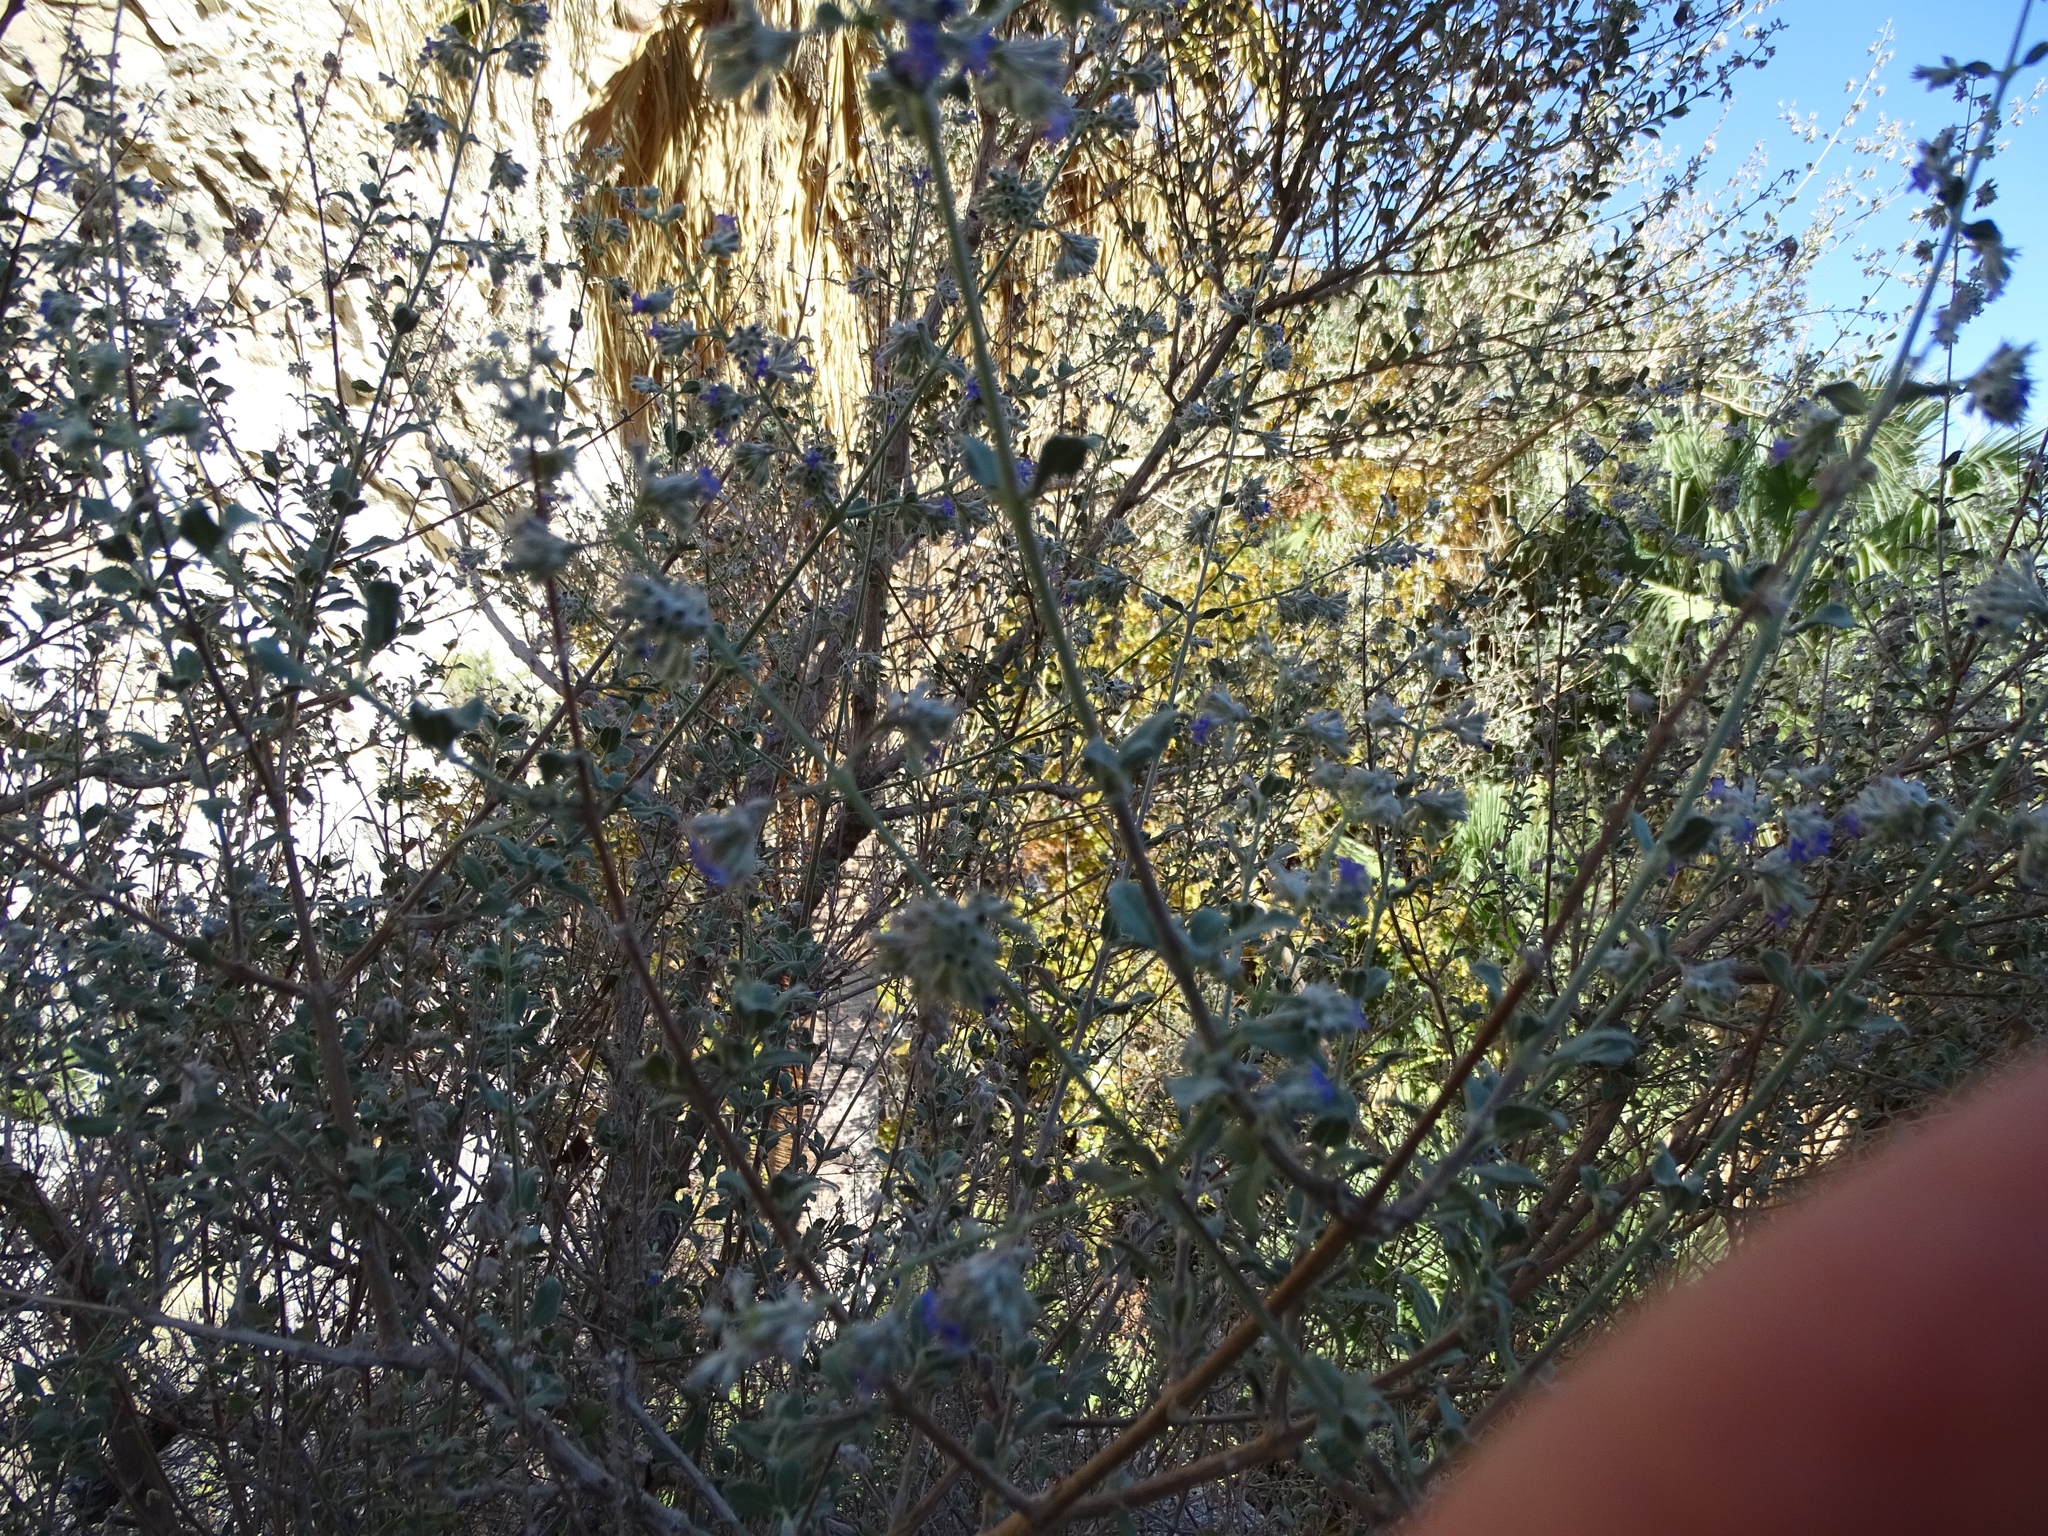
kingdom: Plantae
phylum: Tracheophyta
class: Magnoliopsida
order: Lamiales
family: Lamiaceae
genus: Condea
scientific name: Condea emoryi
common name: Chia
